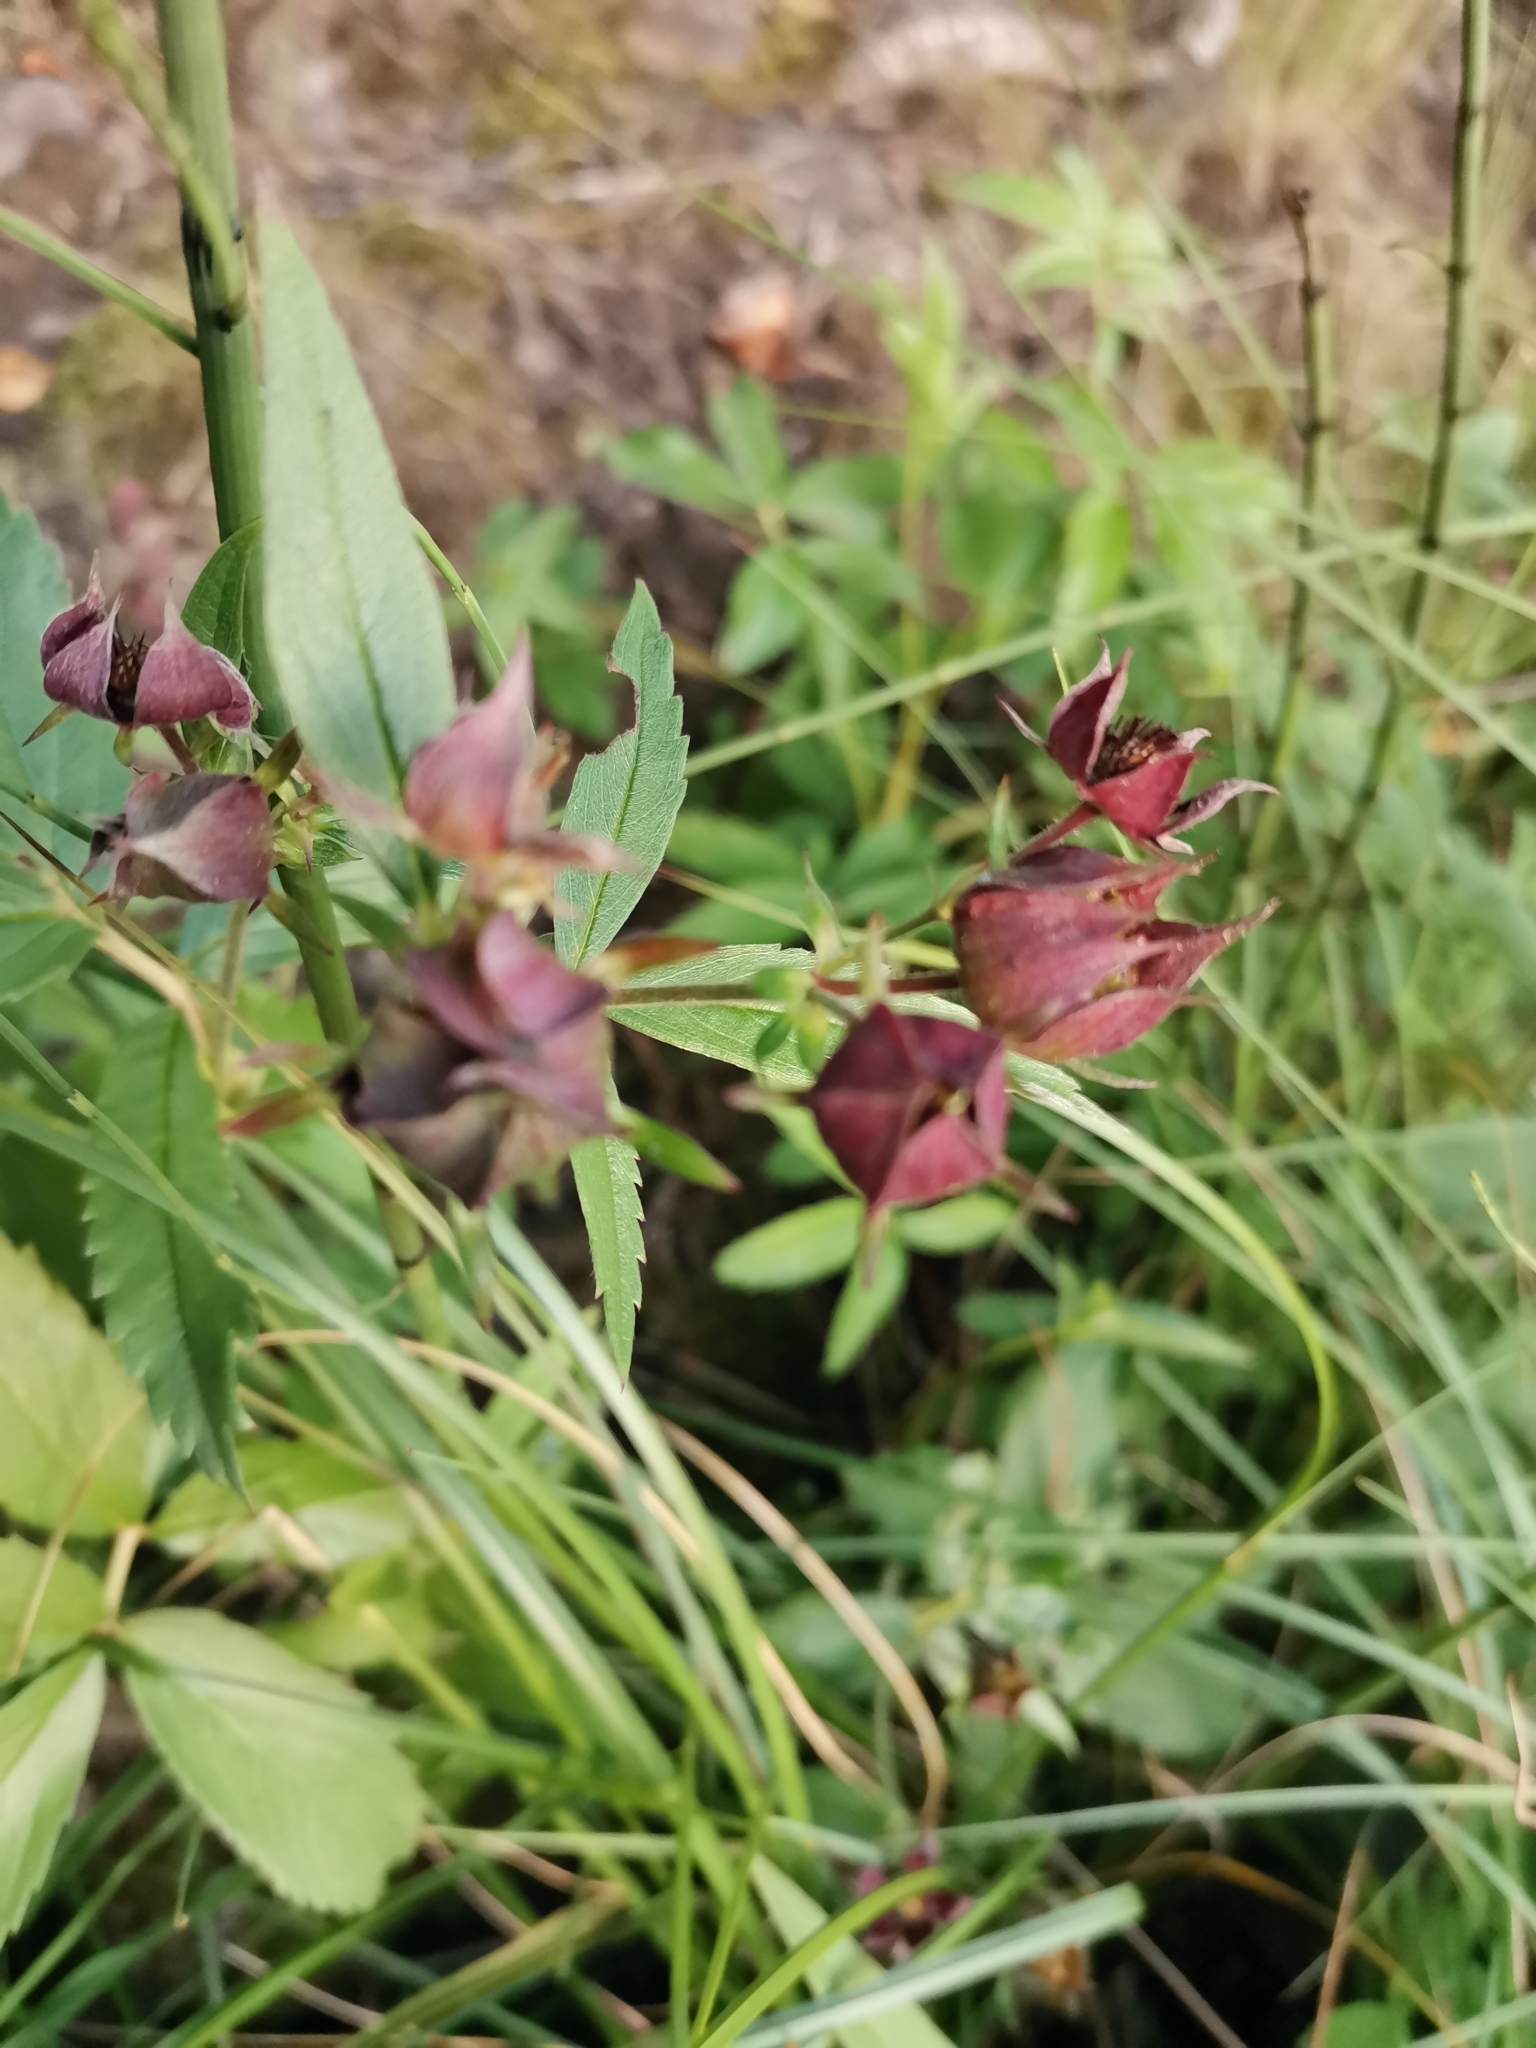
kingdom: Plantae
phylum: Tracheophyta
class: Magnoliopsida
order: Rosales
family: Rosaceae
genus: Comarum
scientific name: Comarum palustre
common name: Marsh cinquefoil
